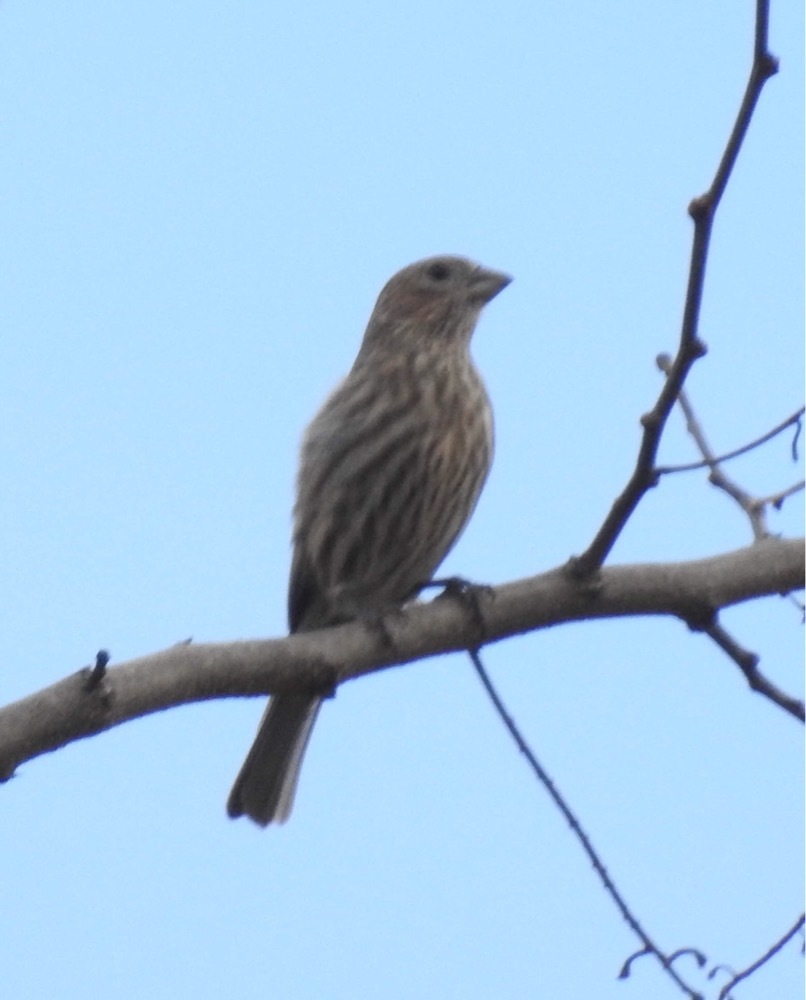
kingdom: Animalia
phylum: Chordata
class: Aves
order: Passeriformes
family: Fringillidae
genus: Haemorhous
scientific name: Haemorhous mexicanus
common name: House finch
